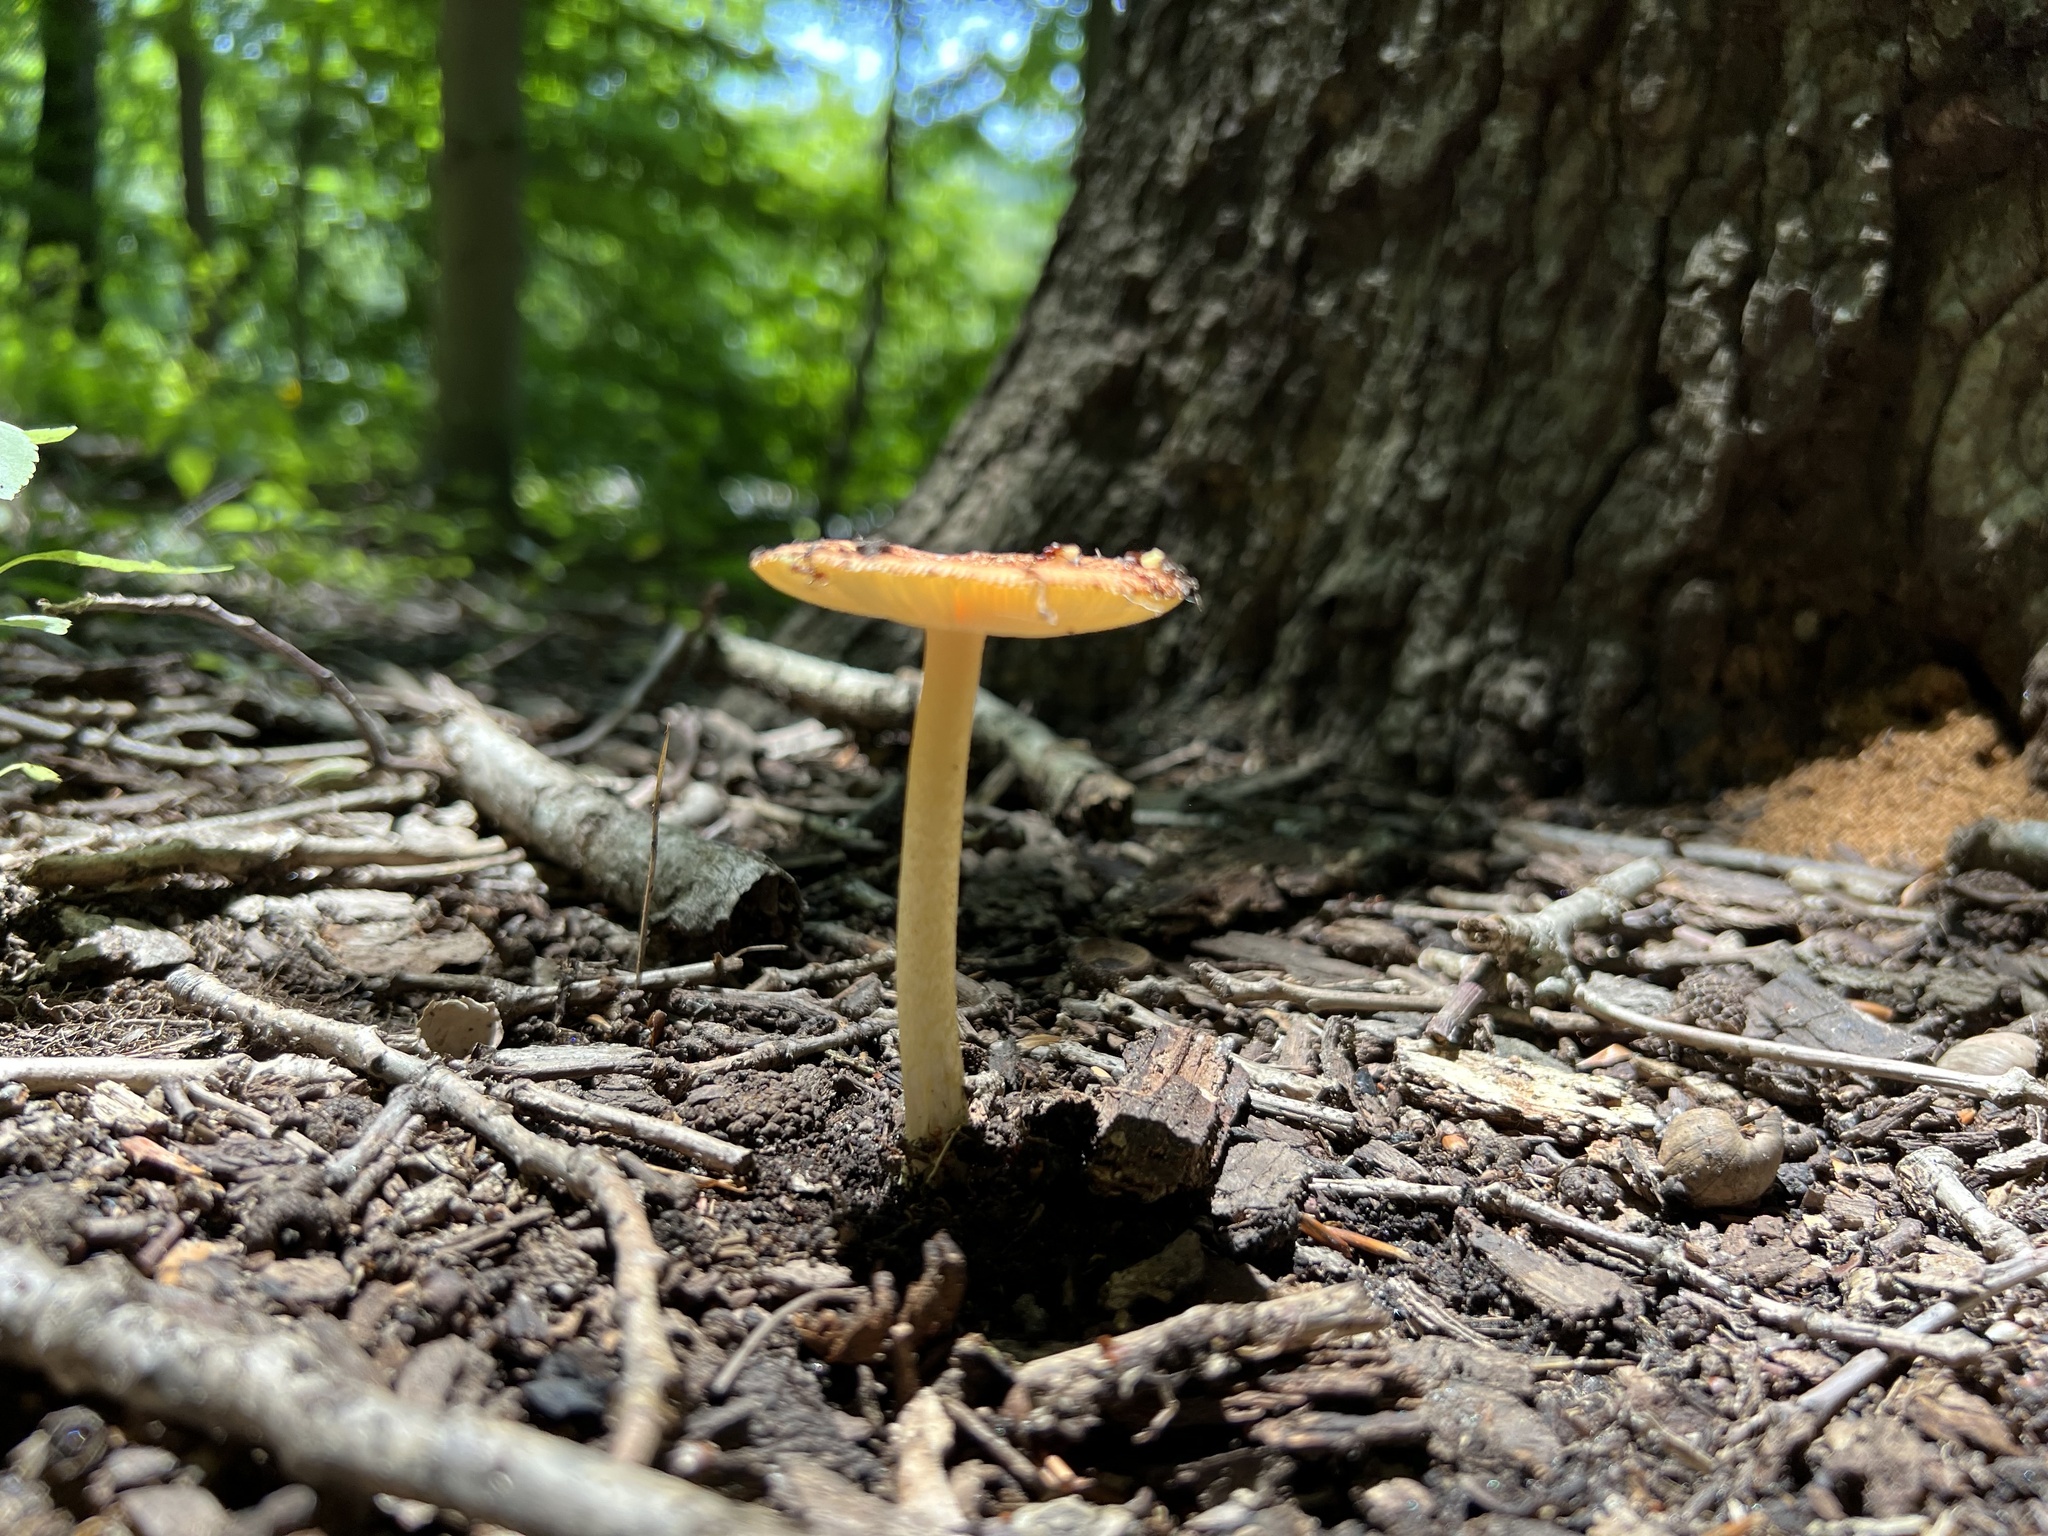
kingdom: Fungi
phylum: Basidiomycota
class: Agaricomycetes
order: Agaricales
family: Amanitaceae
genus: Amanita
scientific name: Amanita parcivolvata
